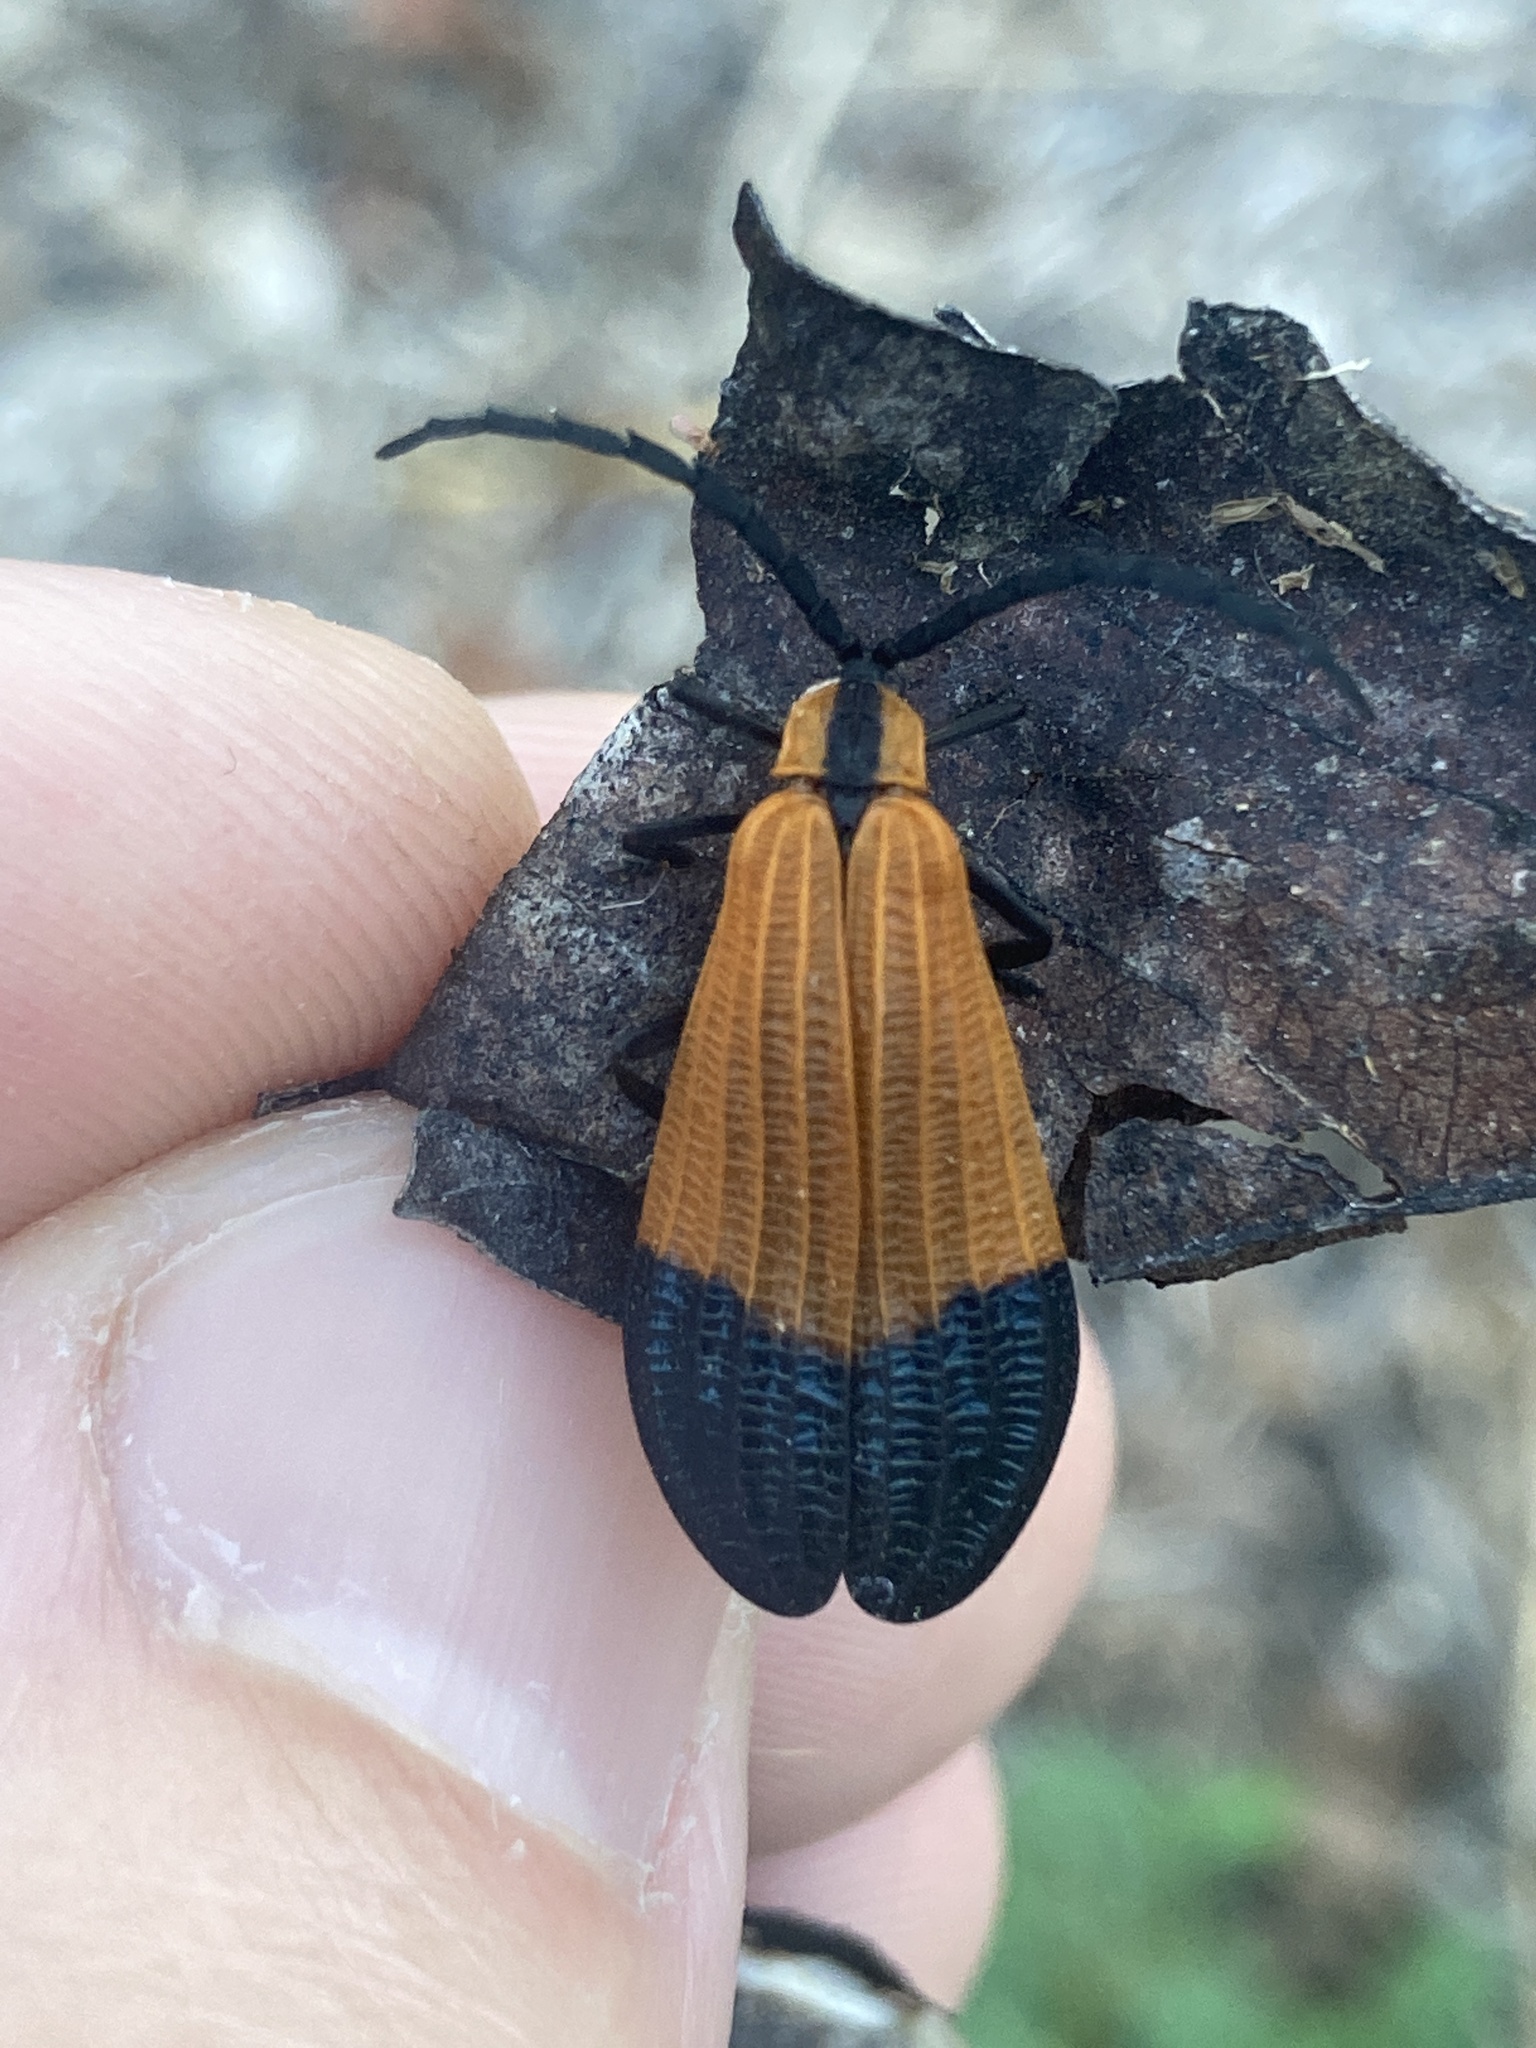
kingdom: Animalia
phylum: Arthropoda
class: Insecta
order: Coleoptera
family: Lycidae
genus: Calopteron
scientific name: Calopteron terminale
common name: End band net-winged beetle
